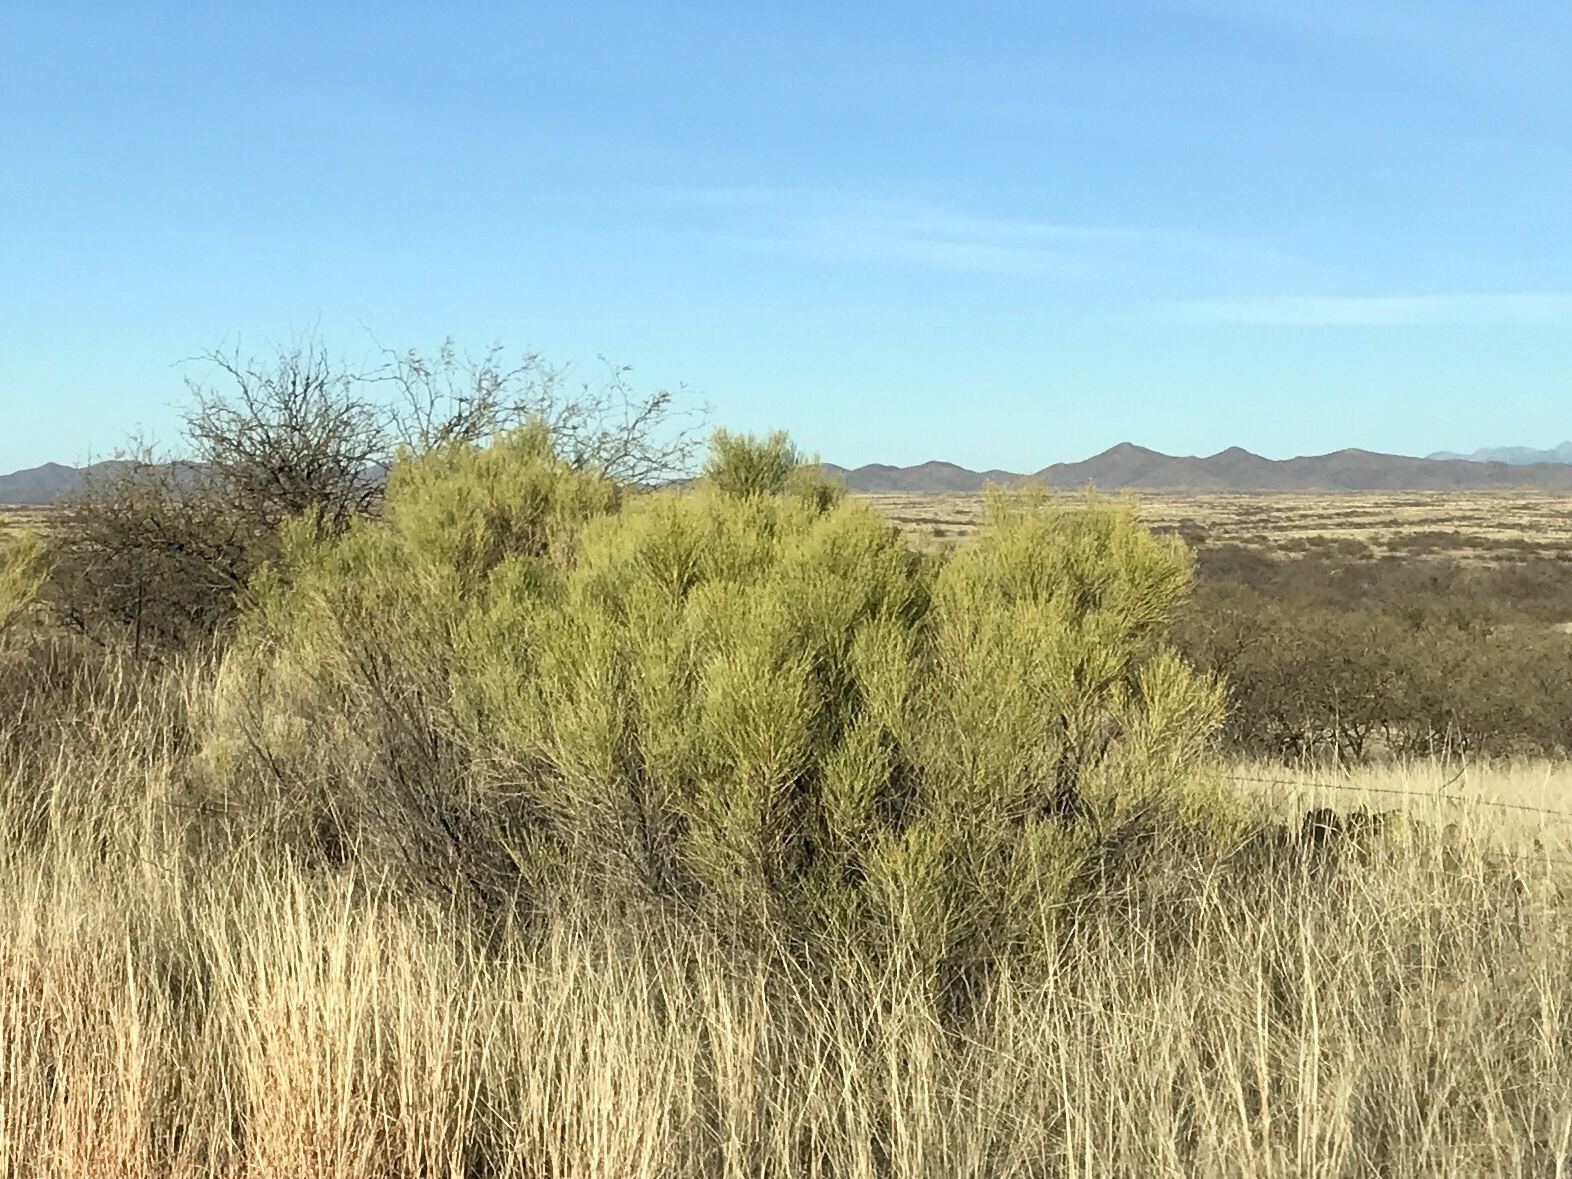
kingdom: Plantae
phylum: Tracheophyta
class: Magnoliopsida
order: Asterales
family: Asteraceae
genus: Baccharis
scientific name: Baccharis sarothroides
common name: Desert-broom
